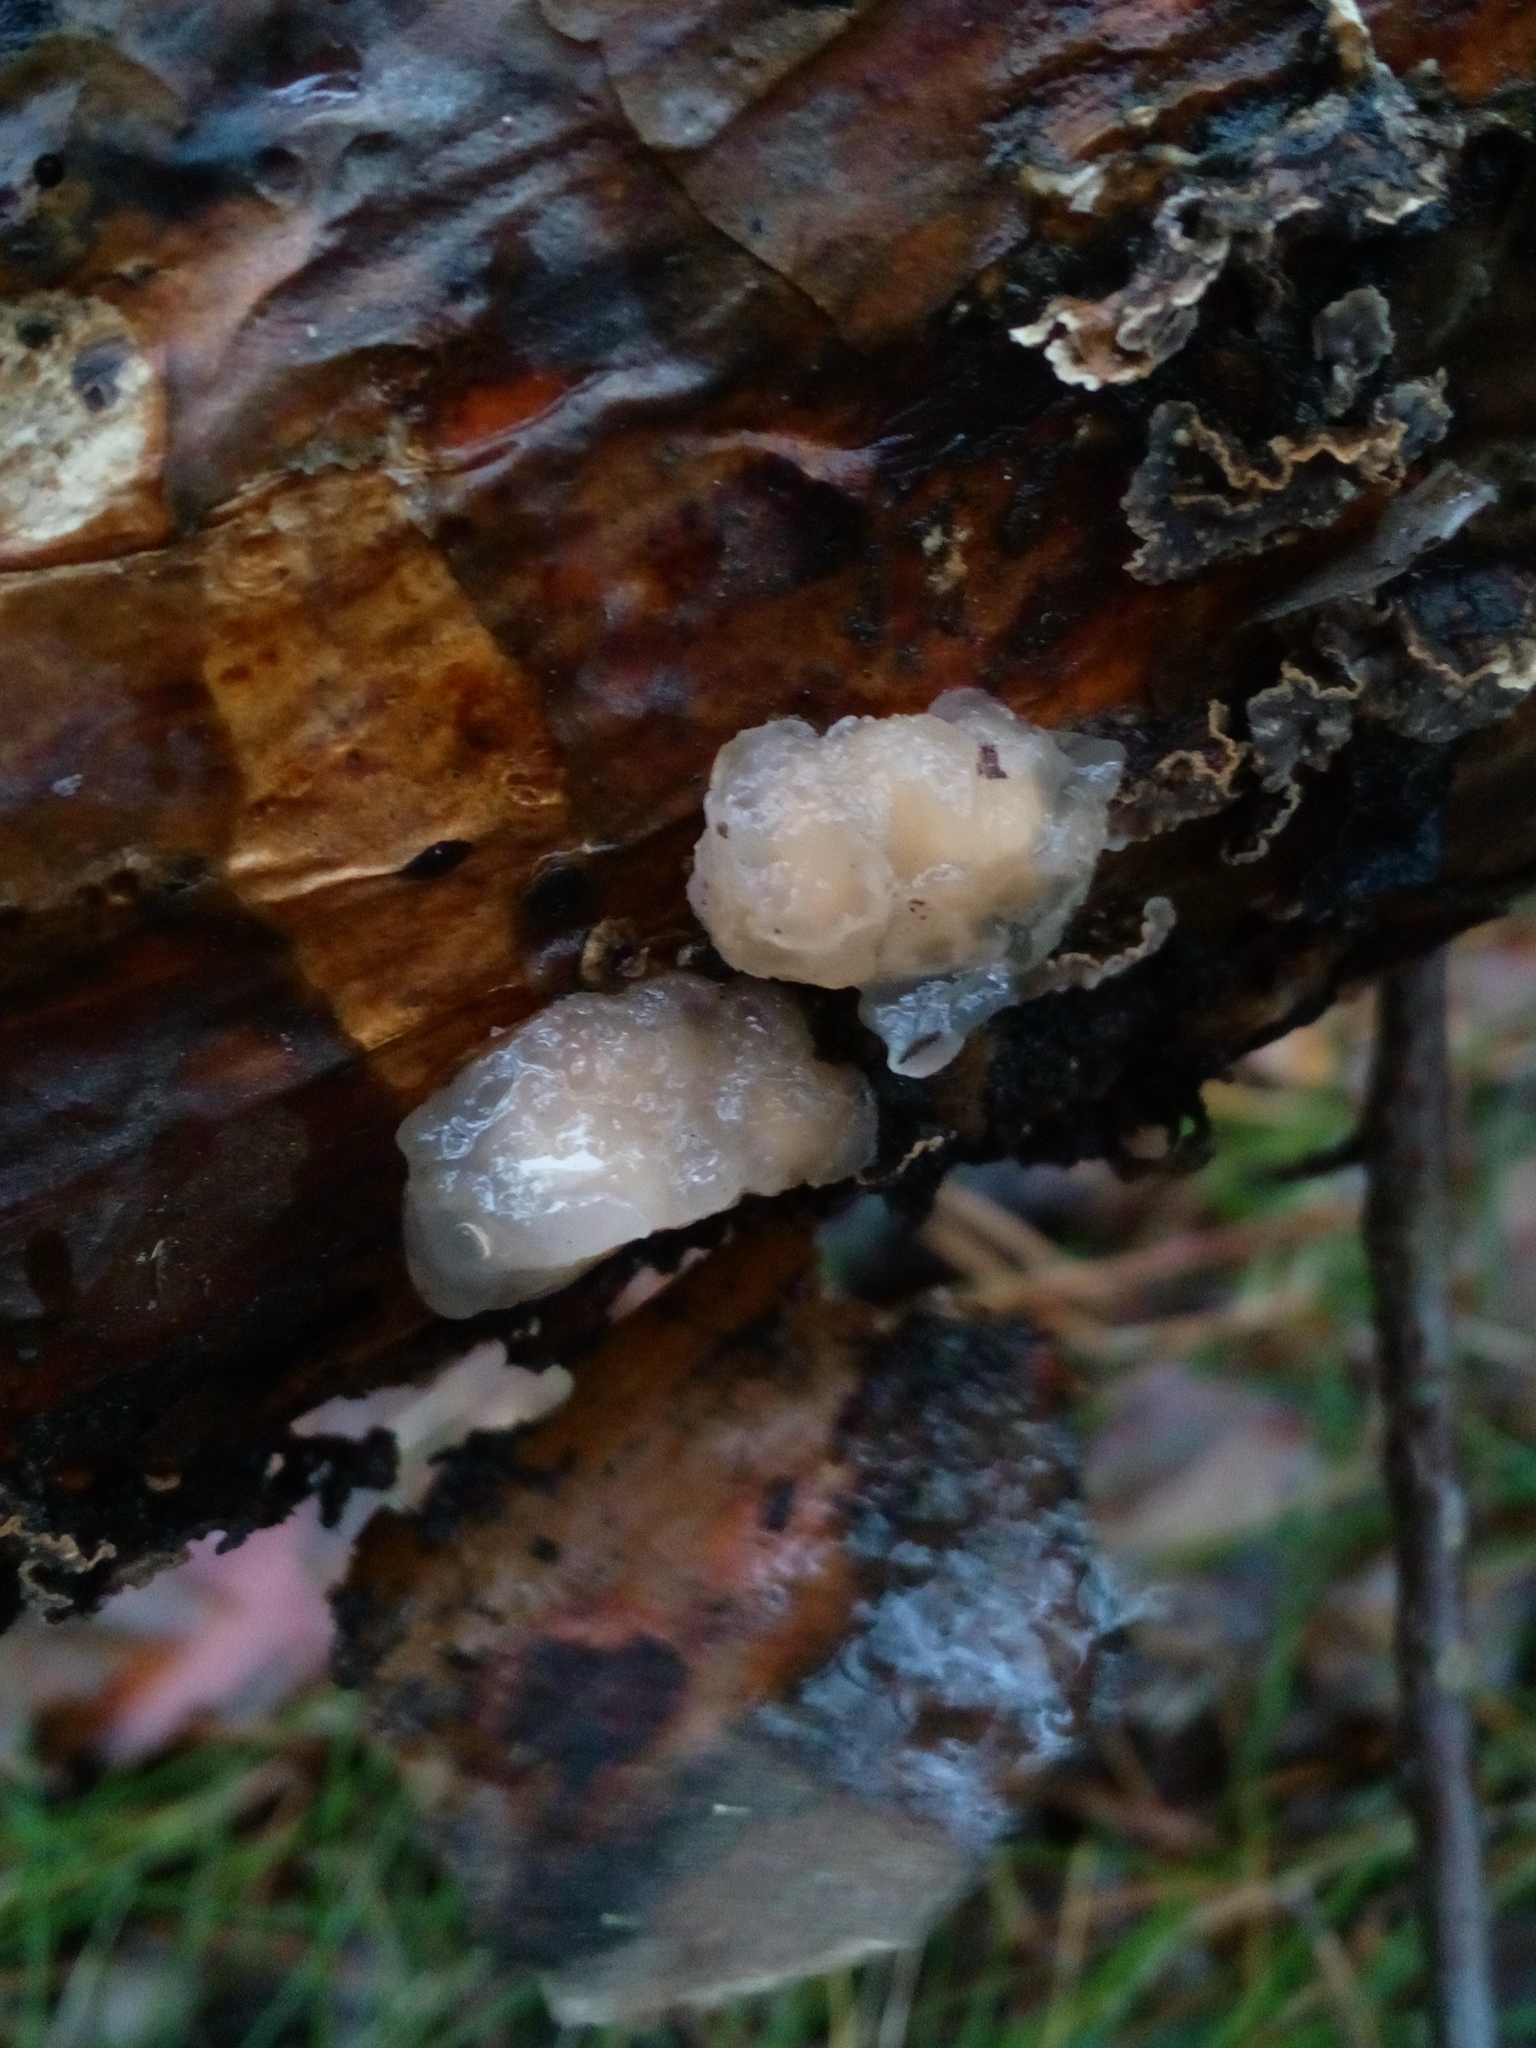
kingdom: Fungi
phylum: Basidiomycota
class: Tremellomycetes
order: Tremellales
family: Naemateliaceae
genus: Naematelia
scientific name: Naematelia encephala
